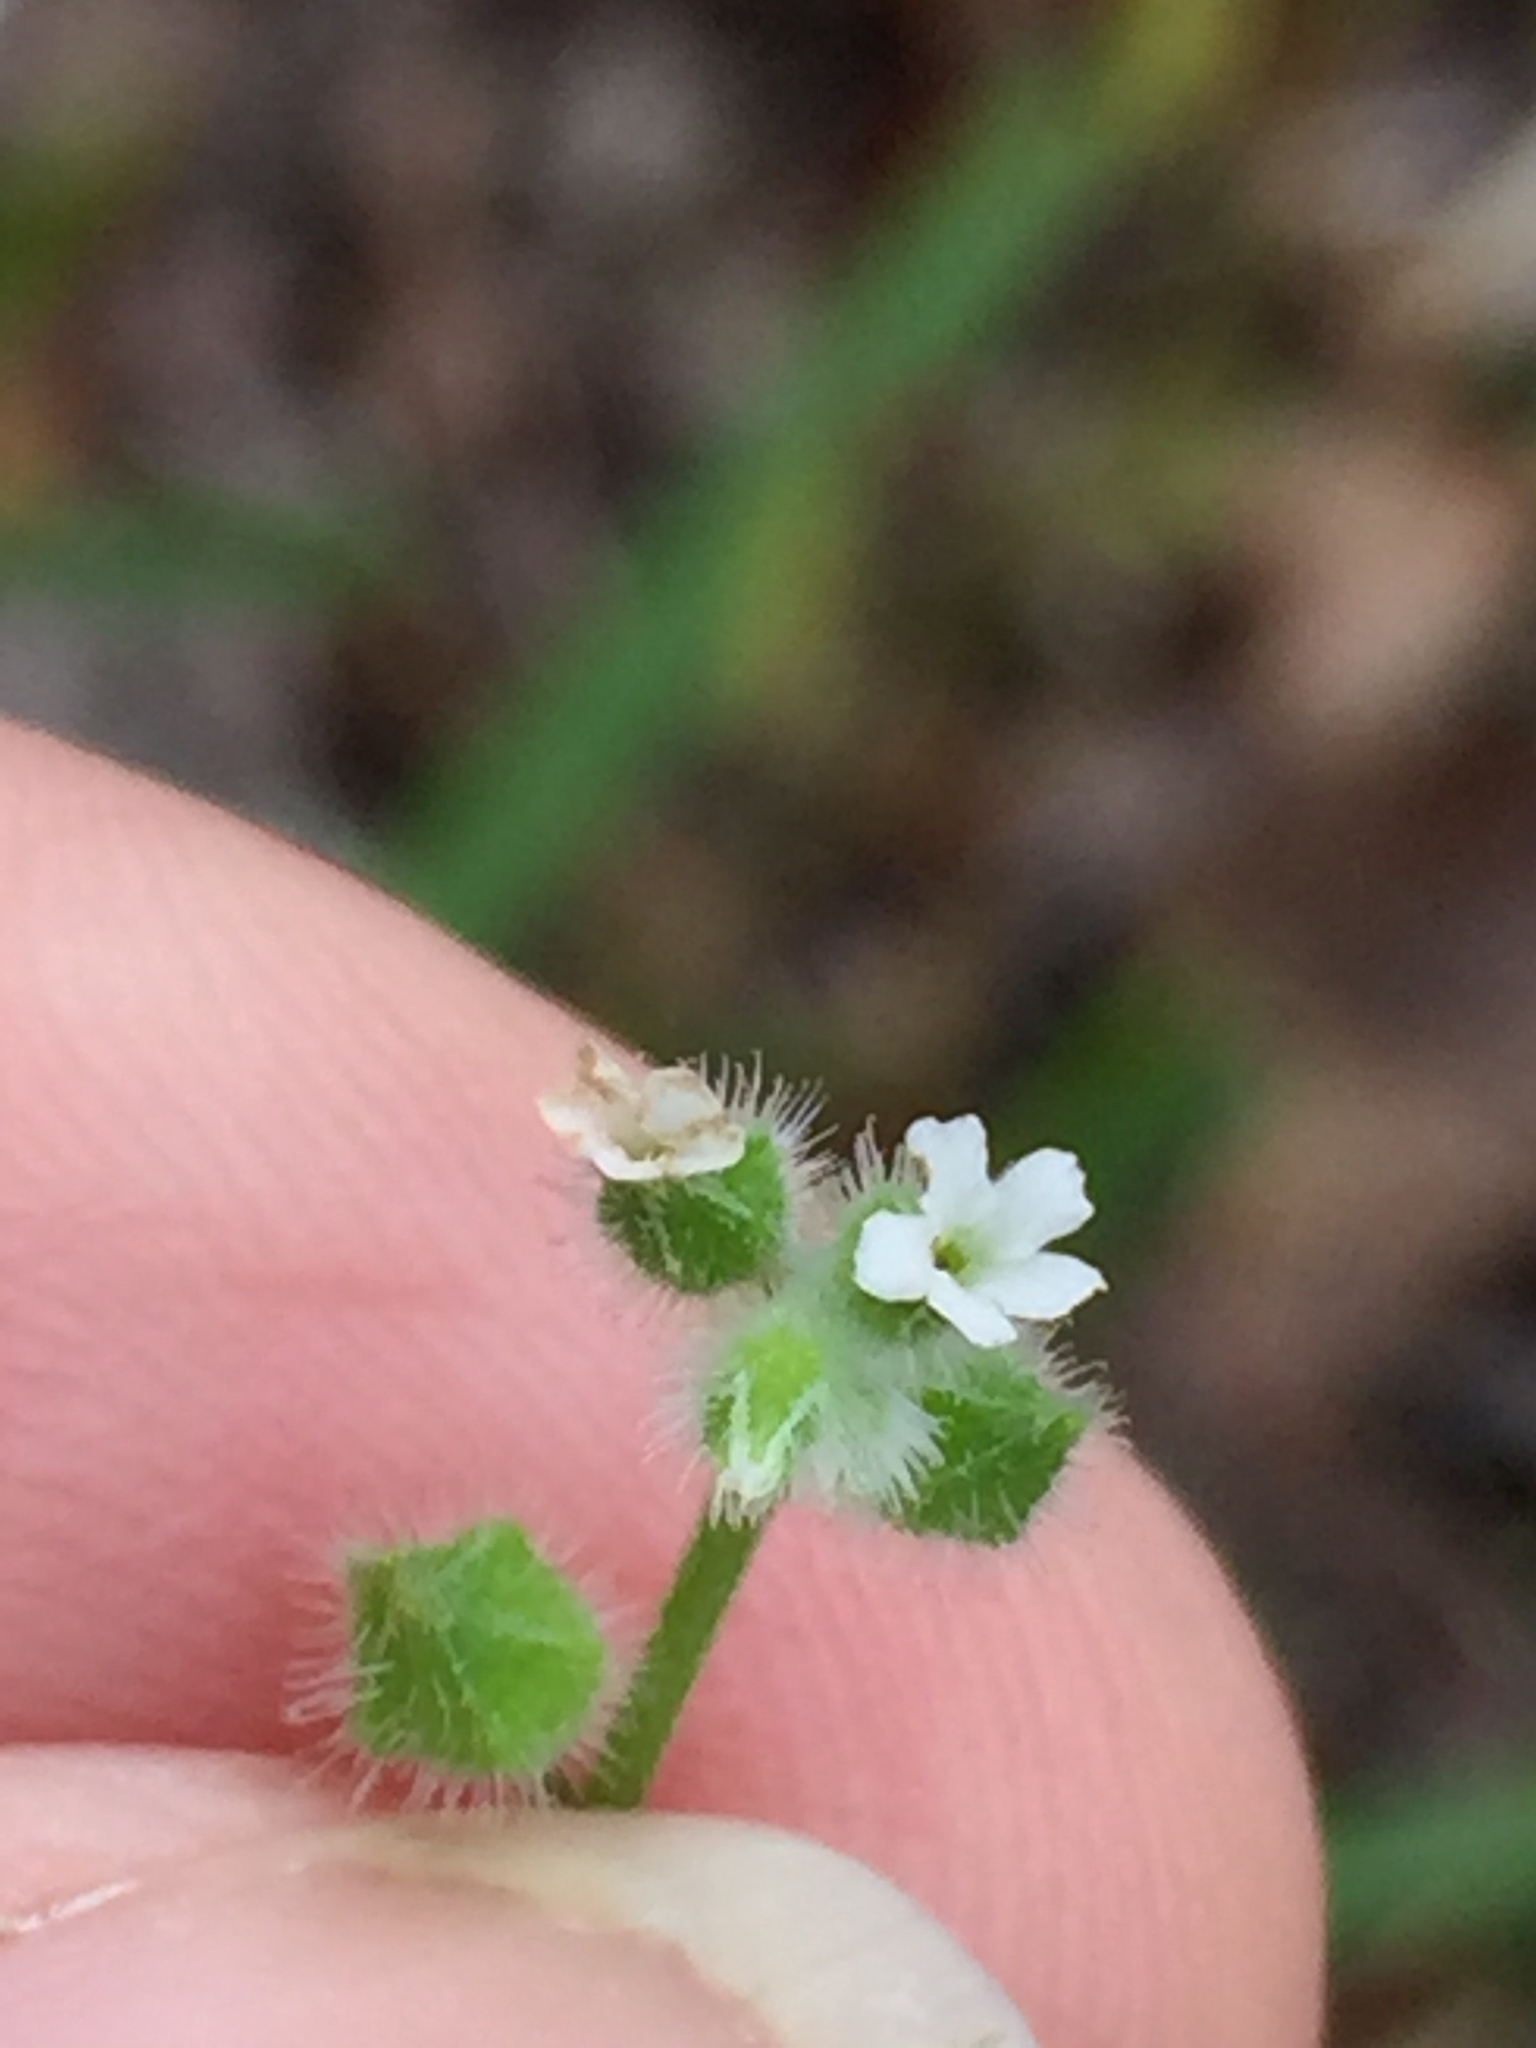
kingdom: Plantae
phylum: Tracheophyta
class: Magnoliopsida
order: Boraginales
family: Boraginaceae
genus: Myosotis
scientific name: Myosotis macrosperma
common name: Large-seed forget-me-not
